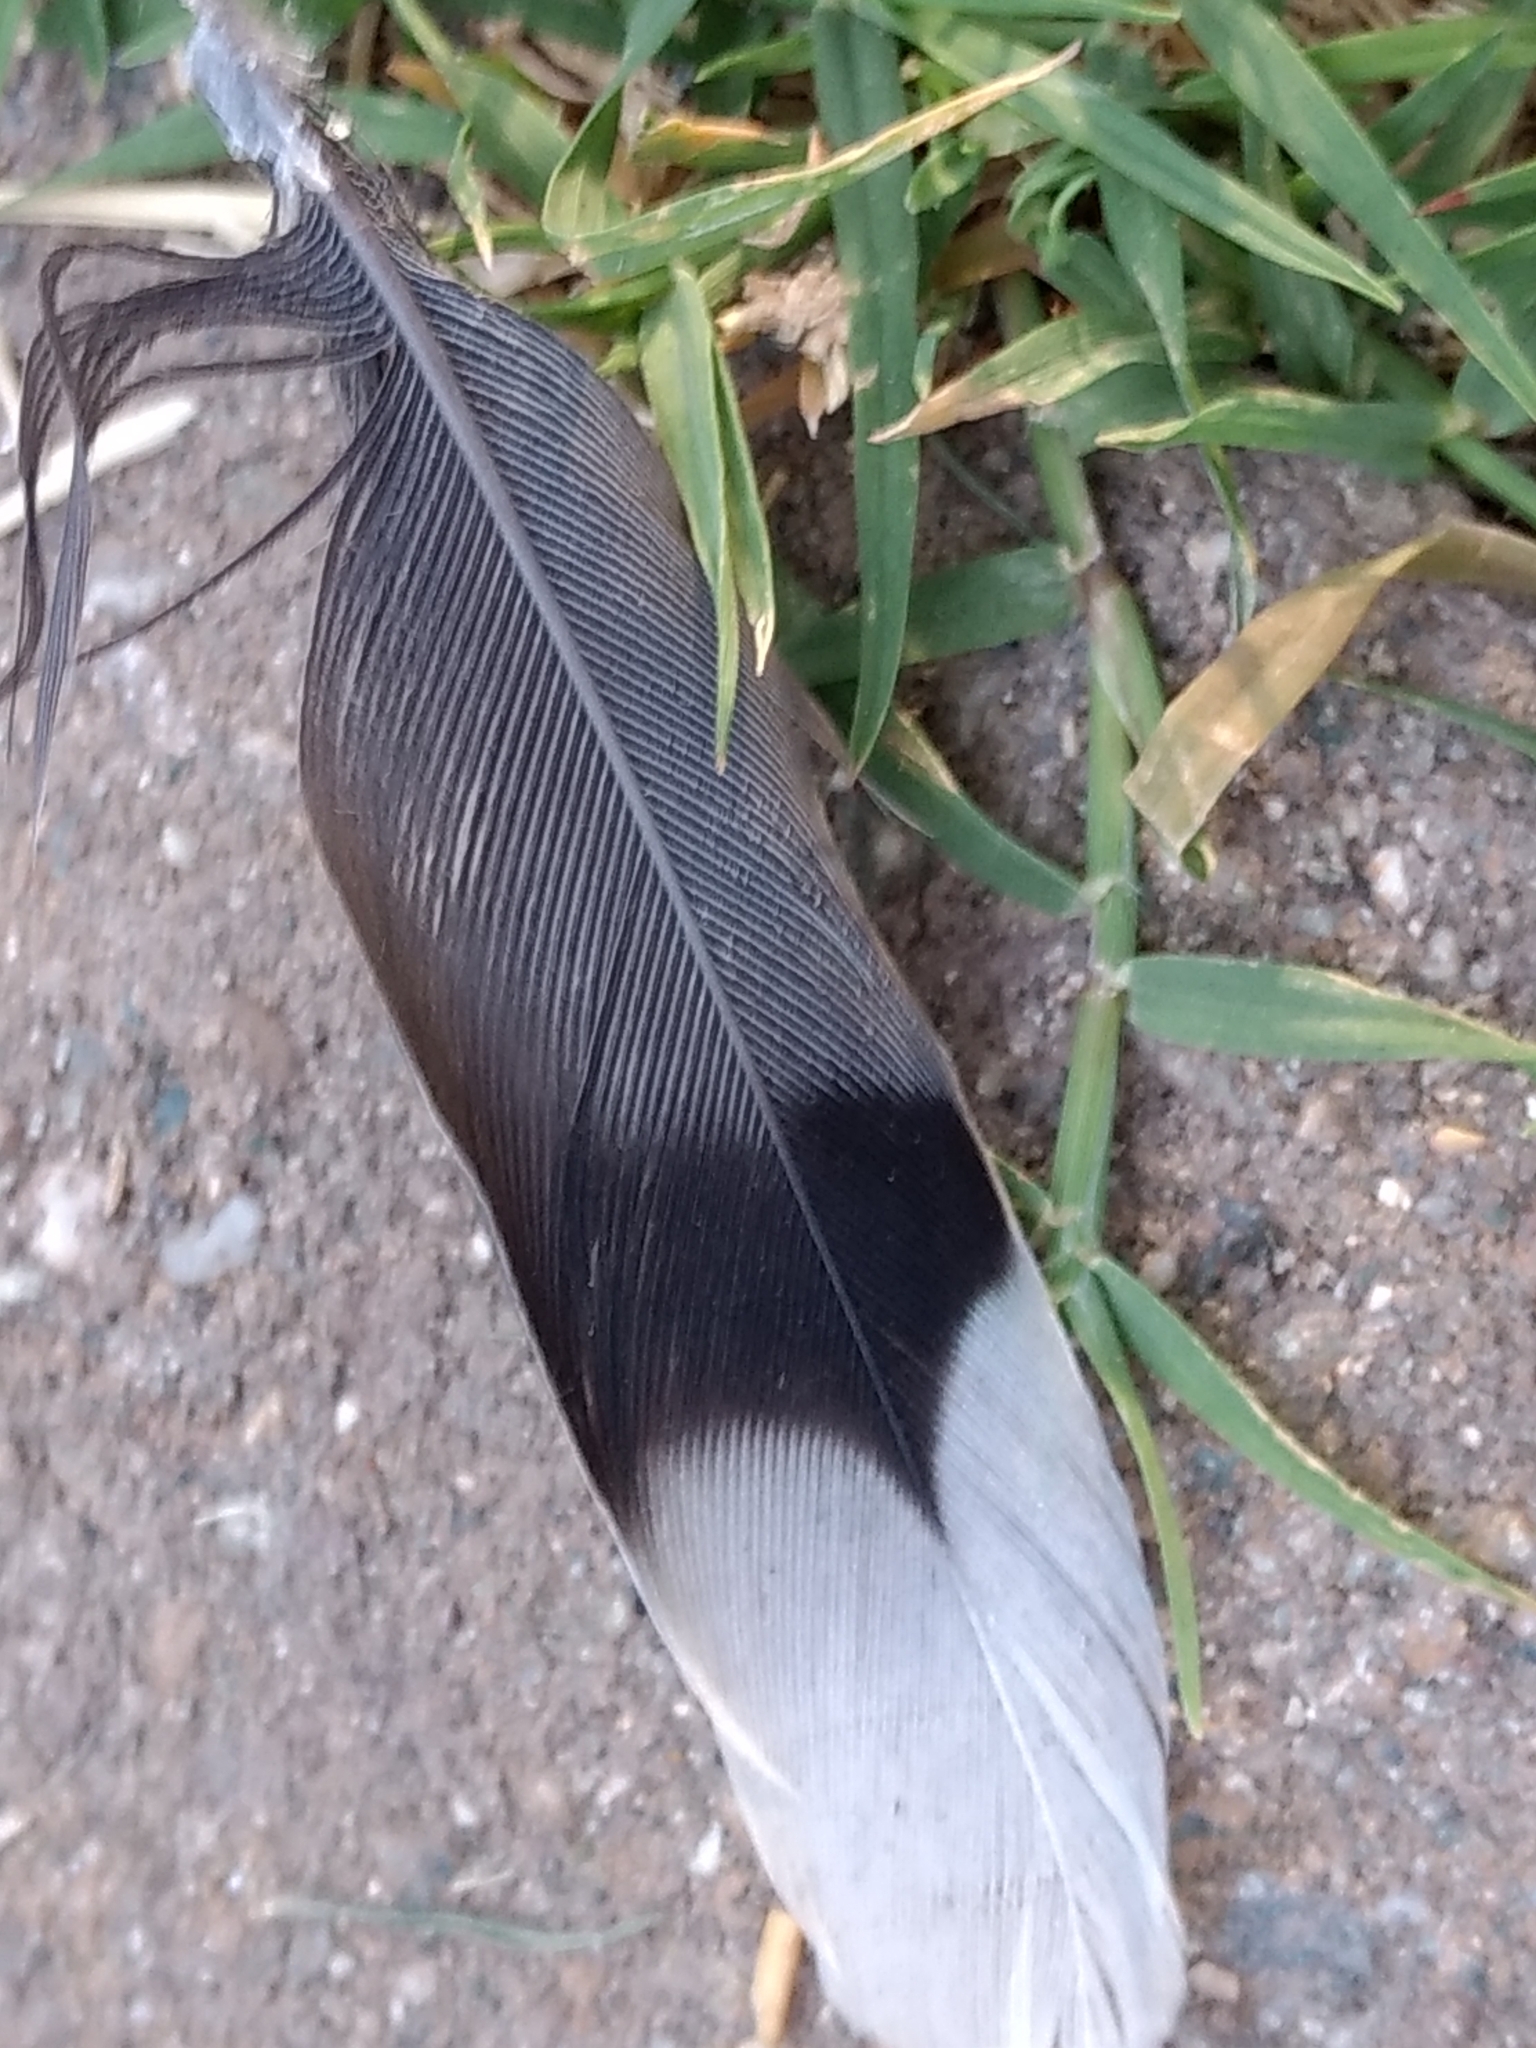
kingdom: Animalia
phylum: Chordata
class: Aves
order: Columbiformes
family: Columbidae
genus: Zenaida
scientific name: Zenaida macroura
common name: Mourning dove
